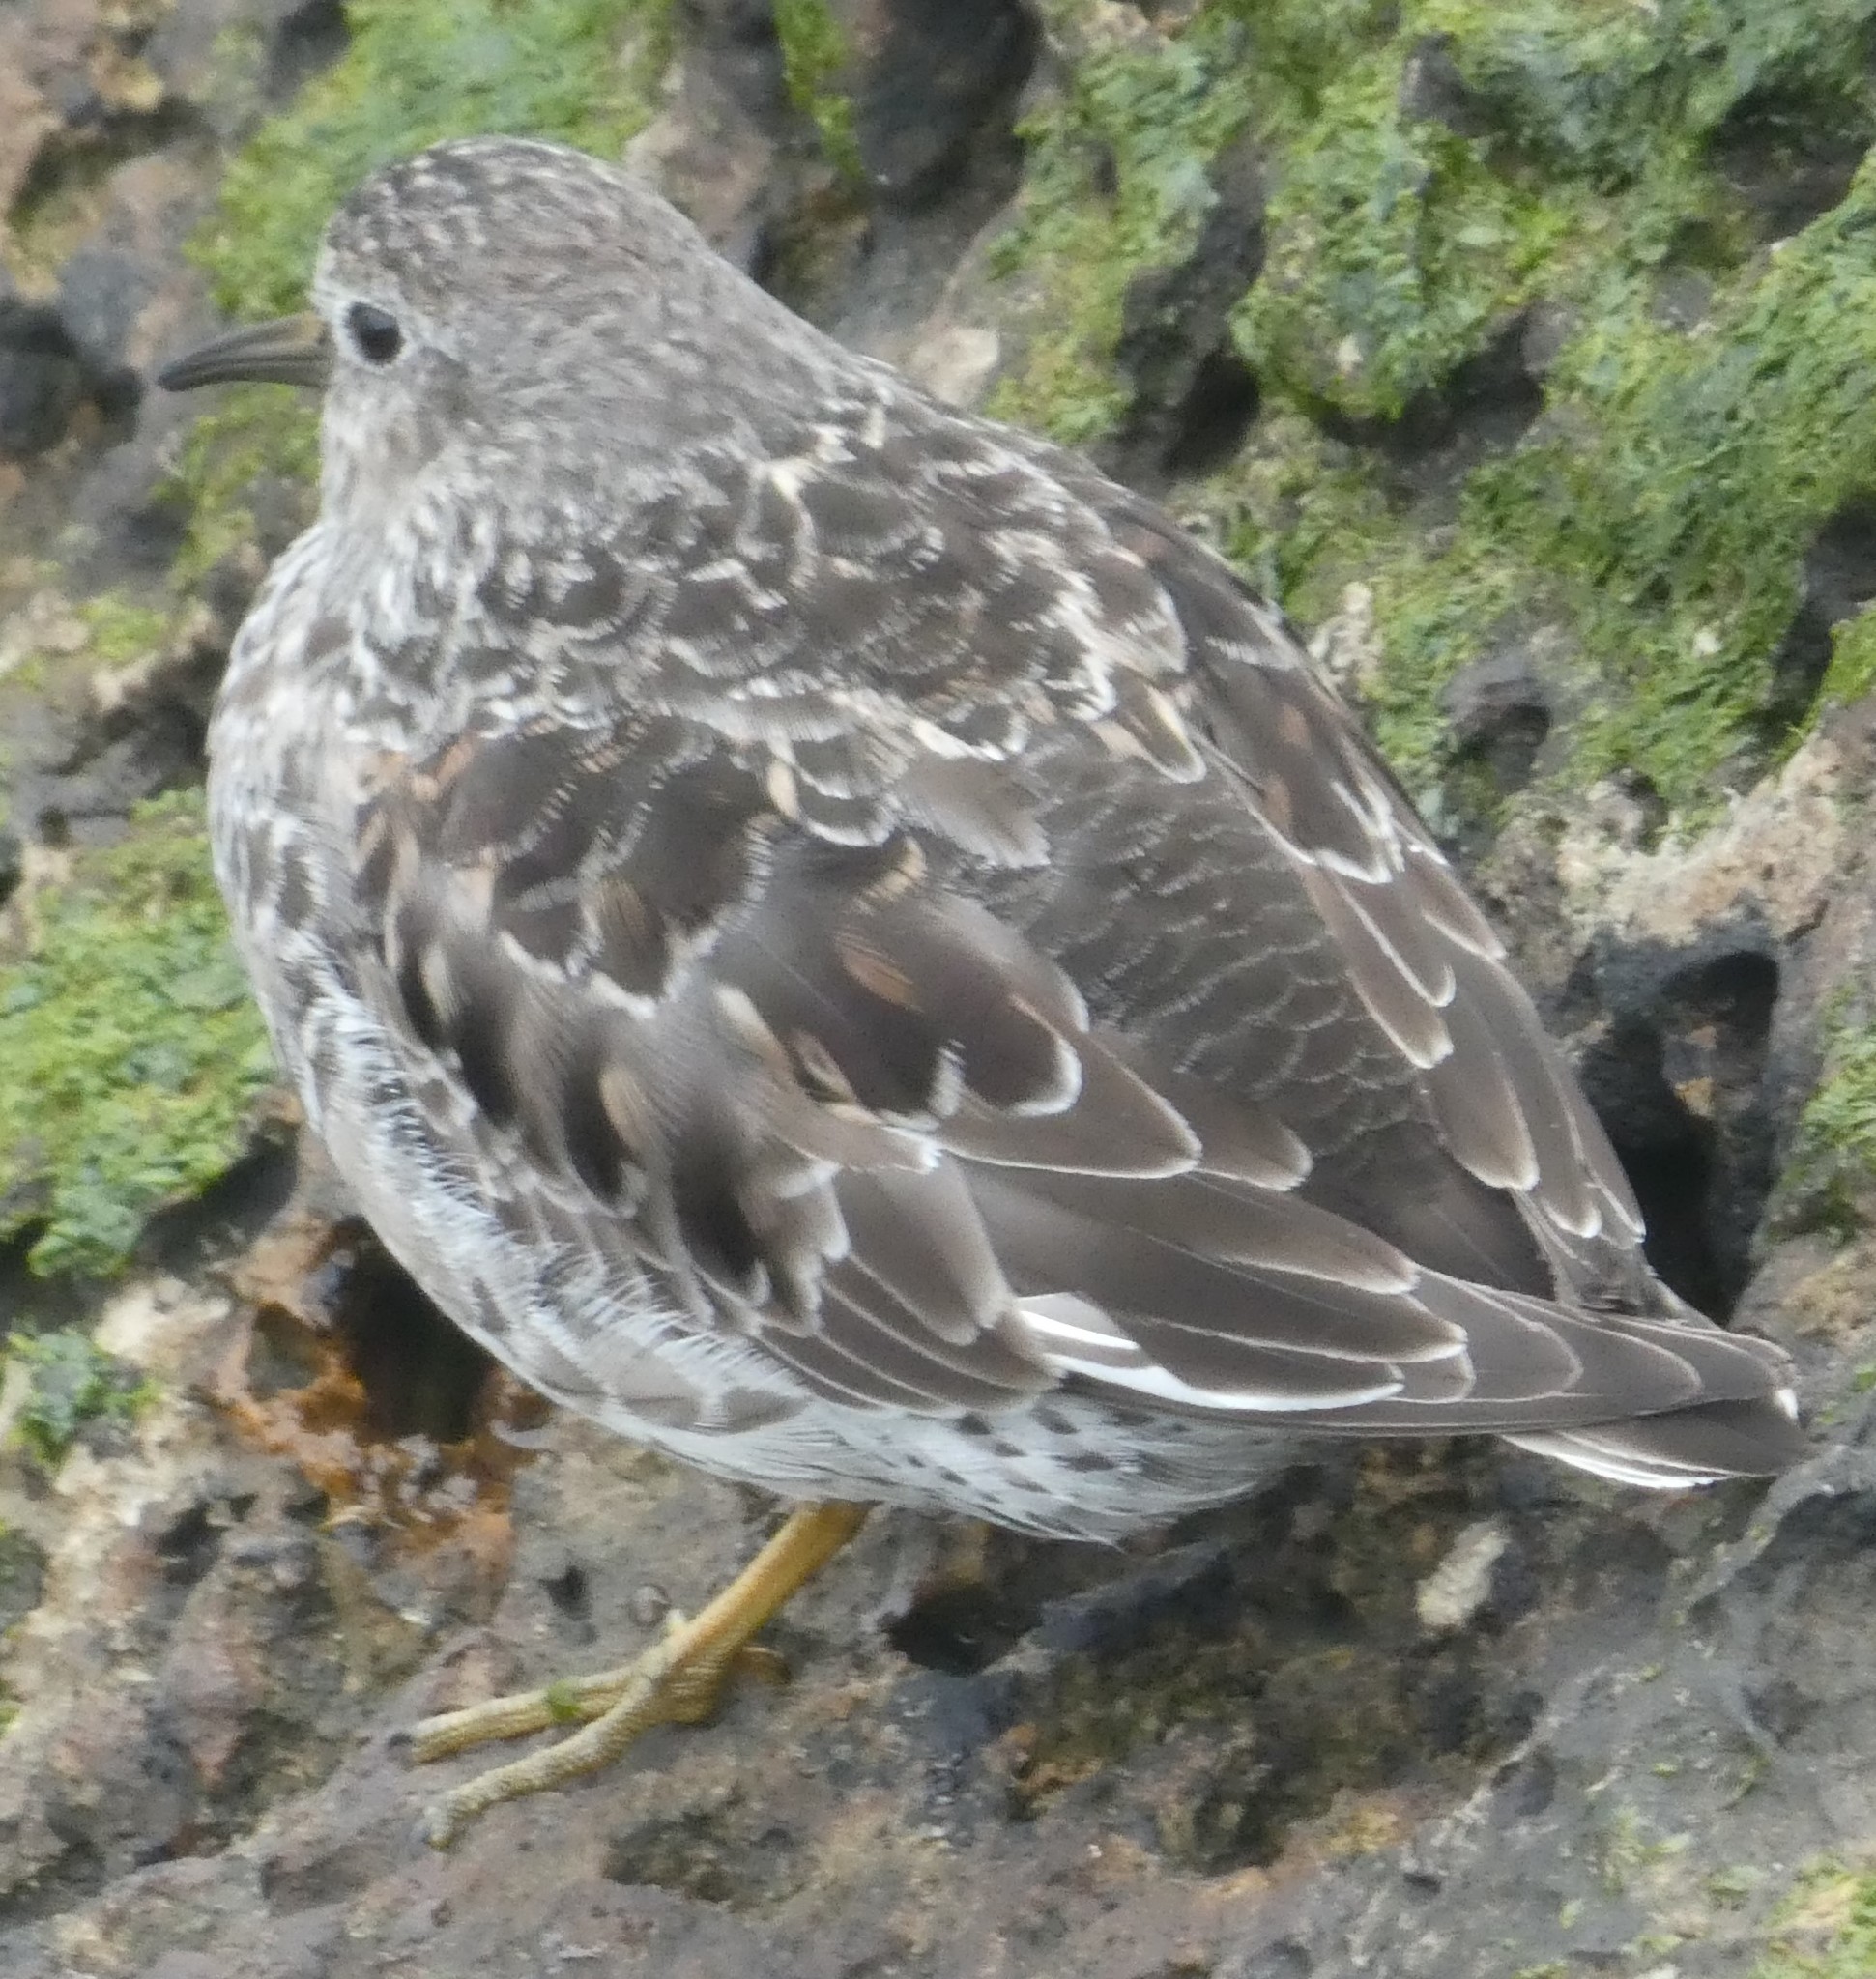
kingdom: Animalia
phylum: Chordata
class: Aves
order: Charadriiformes
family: Scolopacidae
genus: Calidris
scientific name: Calidris maritima
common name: Purple sandpiper
